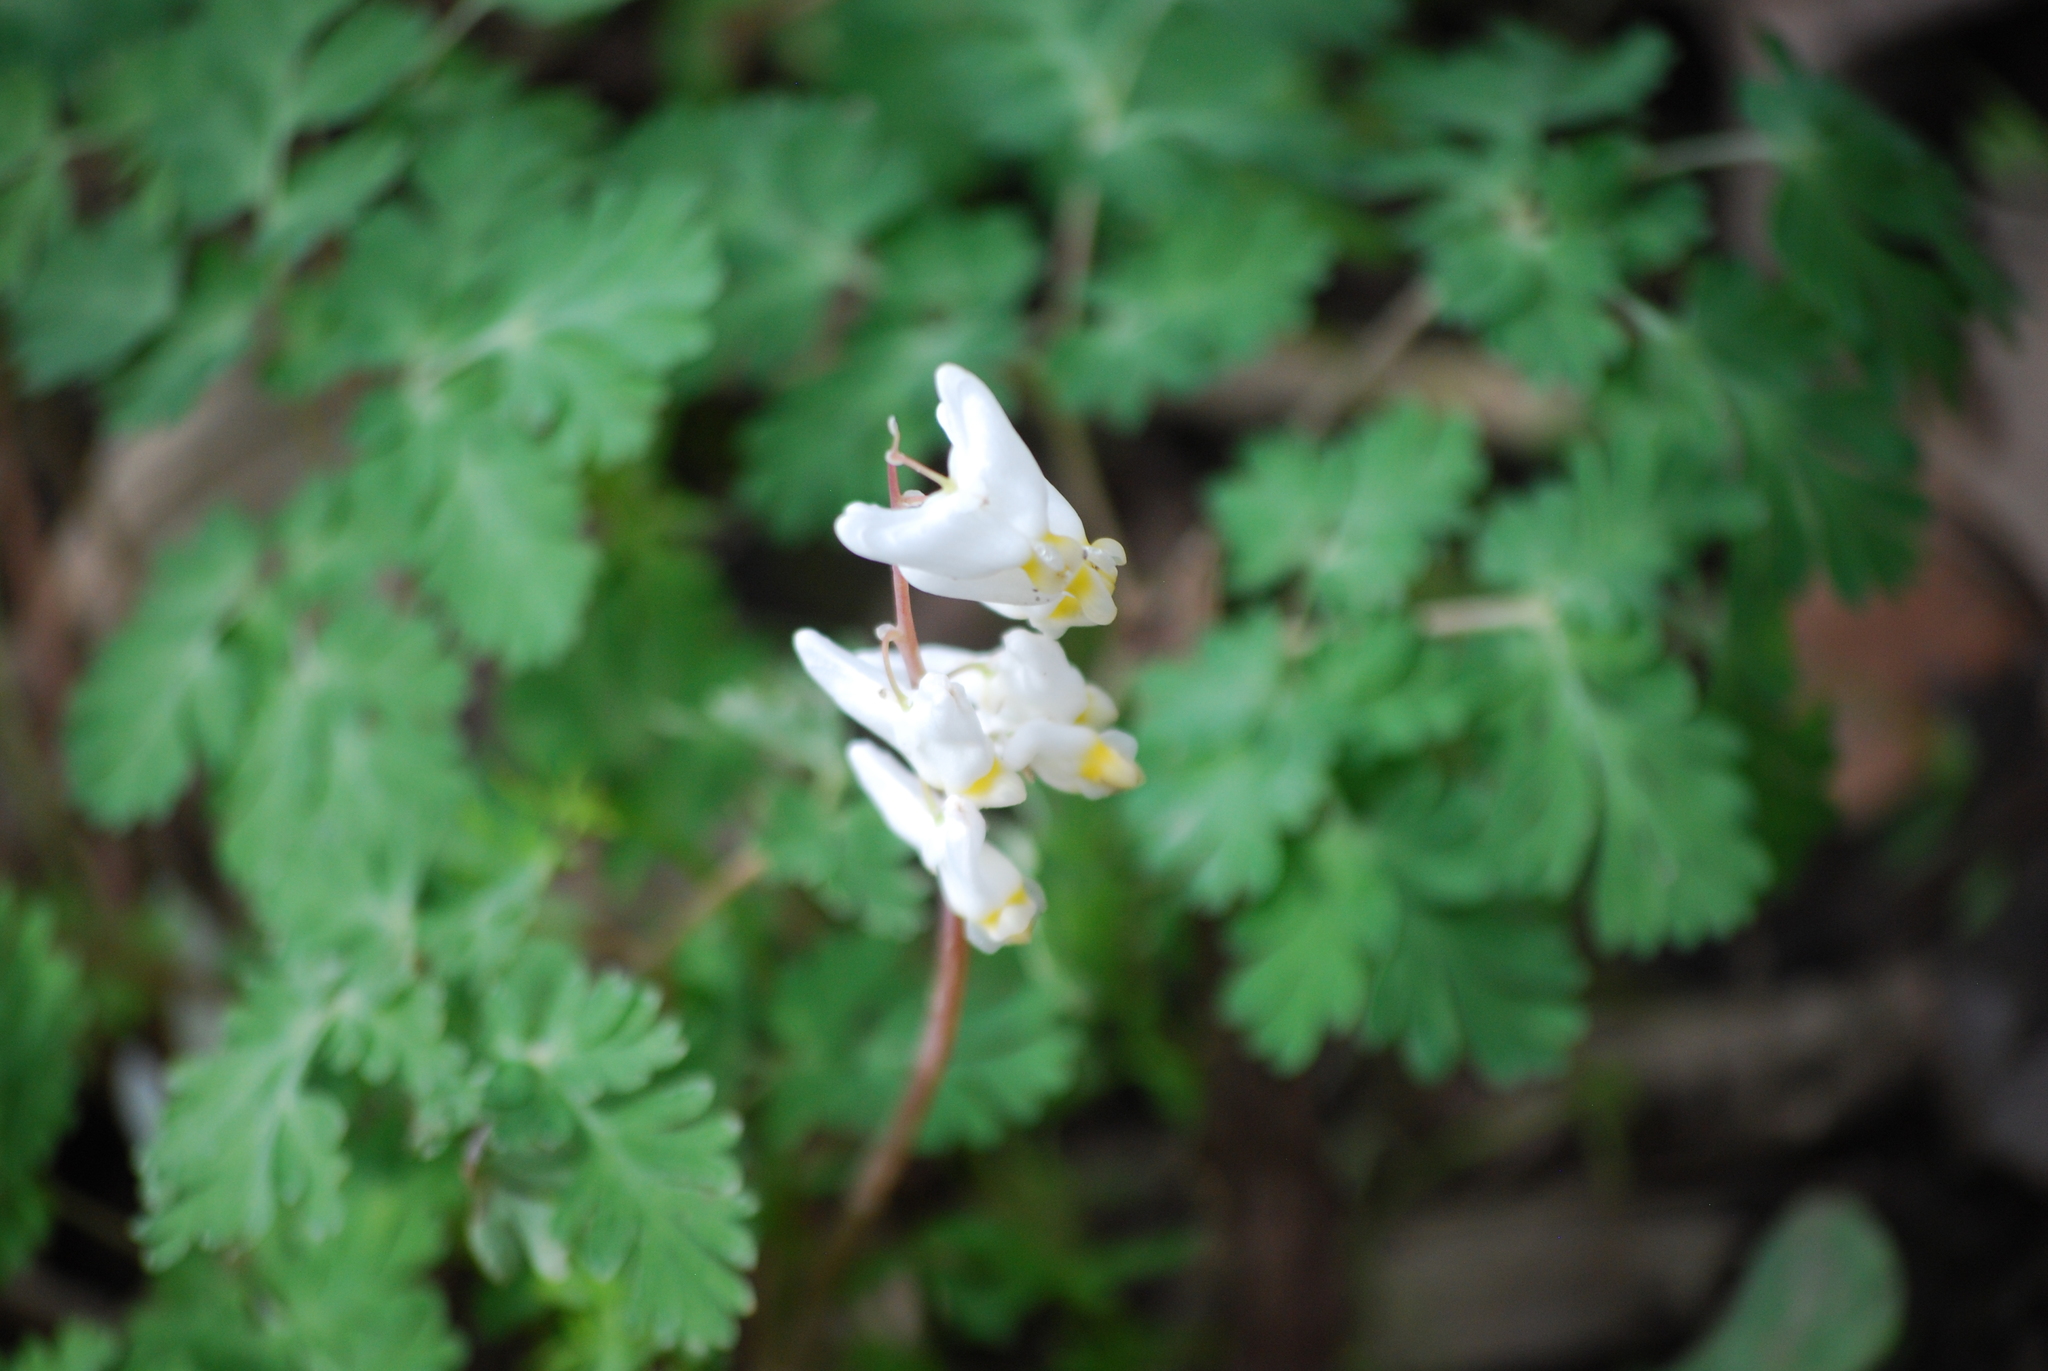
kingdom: Plantae
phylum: Tracheophyta
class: Magnoliopsida
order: Ranunculales
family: Papaveraceae
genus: Dicentra
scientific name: Dicentra cucullaria
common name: Dutchman's breeches
